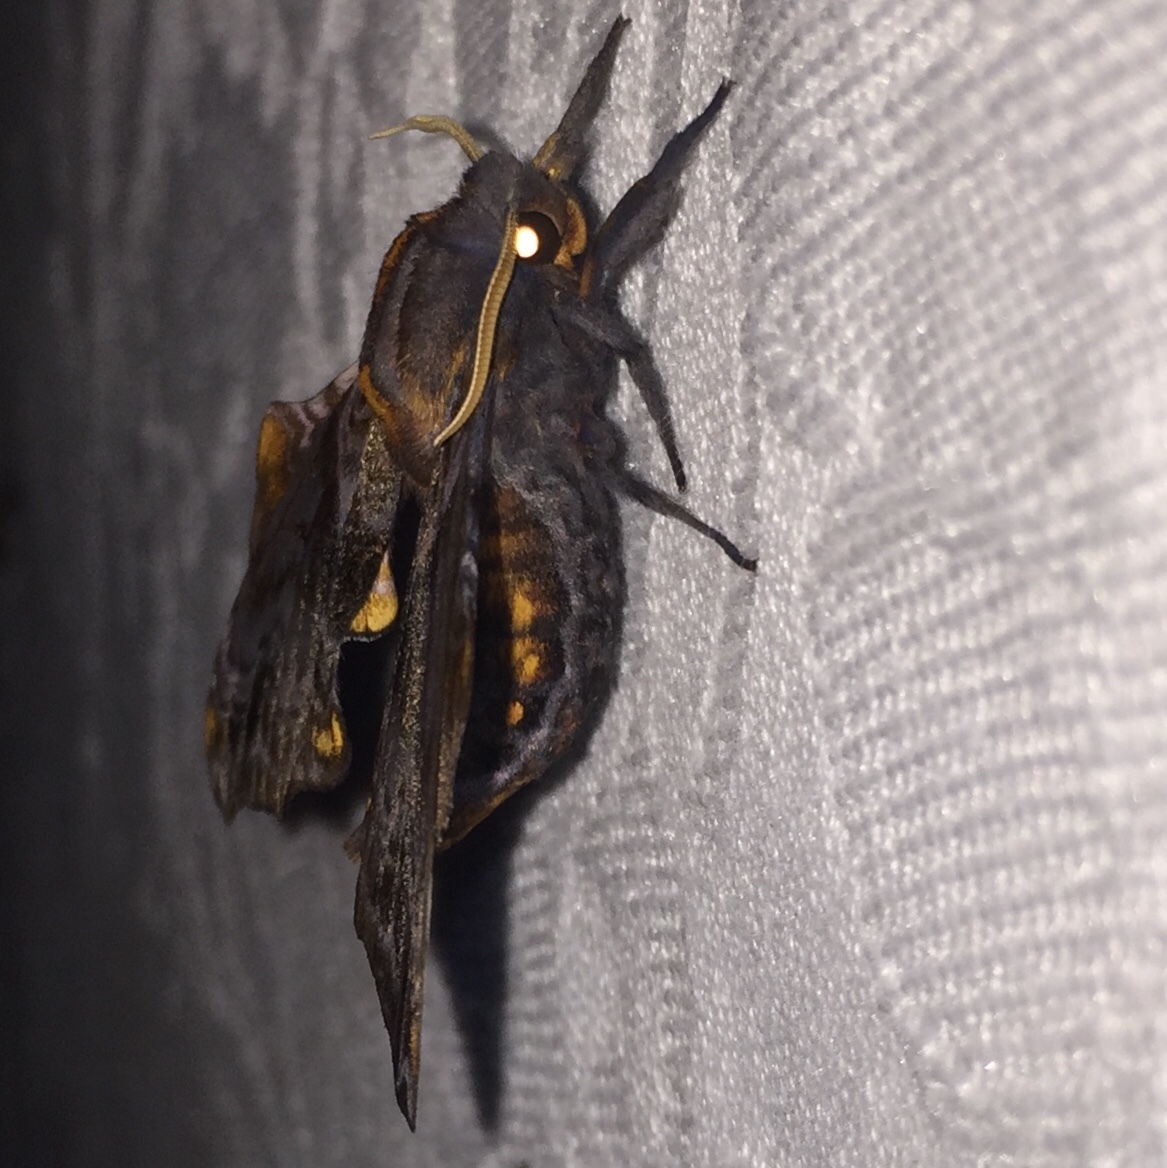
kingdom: Animalia
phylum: Arthropoda
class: Insecta
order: Lepidoptera
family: Sphingidae
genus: Paonias
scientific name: Paonias myops
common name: Small-eyed sphinx
